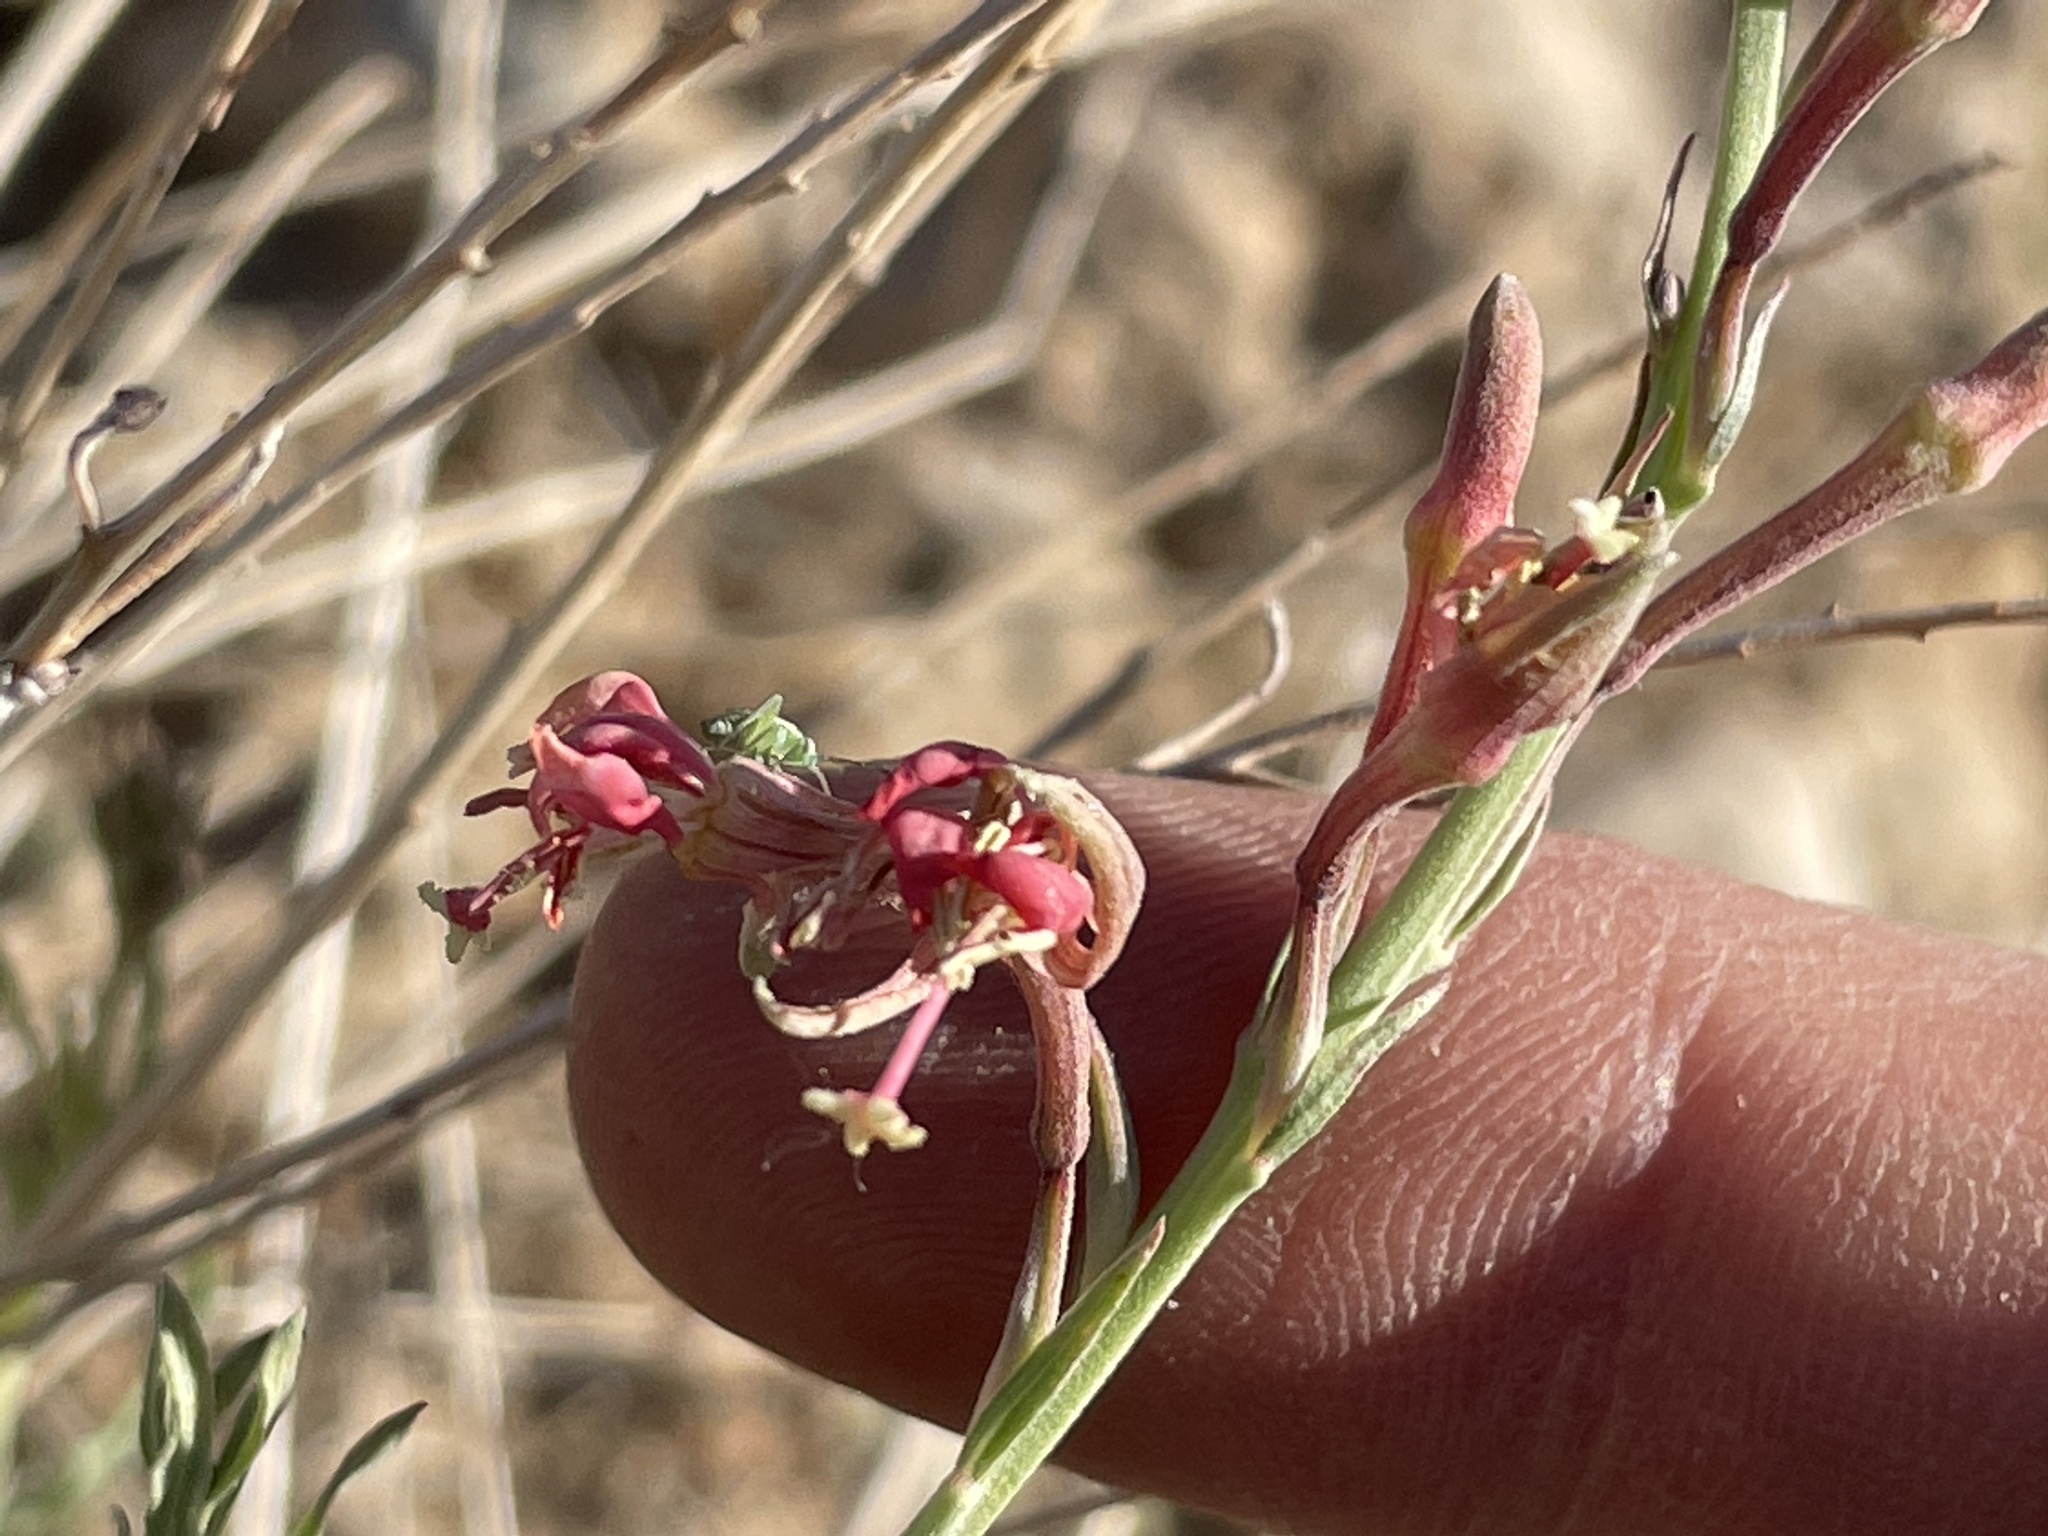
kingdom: Plantae
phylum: Tracheophyta
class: Magnoliopsida
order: Myrtales
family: Onagraceae
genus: Oenothera
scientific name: Oenothera suffrutescens
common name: Scarlet beeblossom
